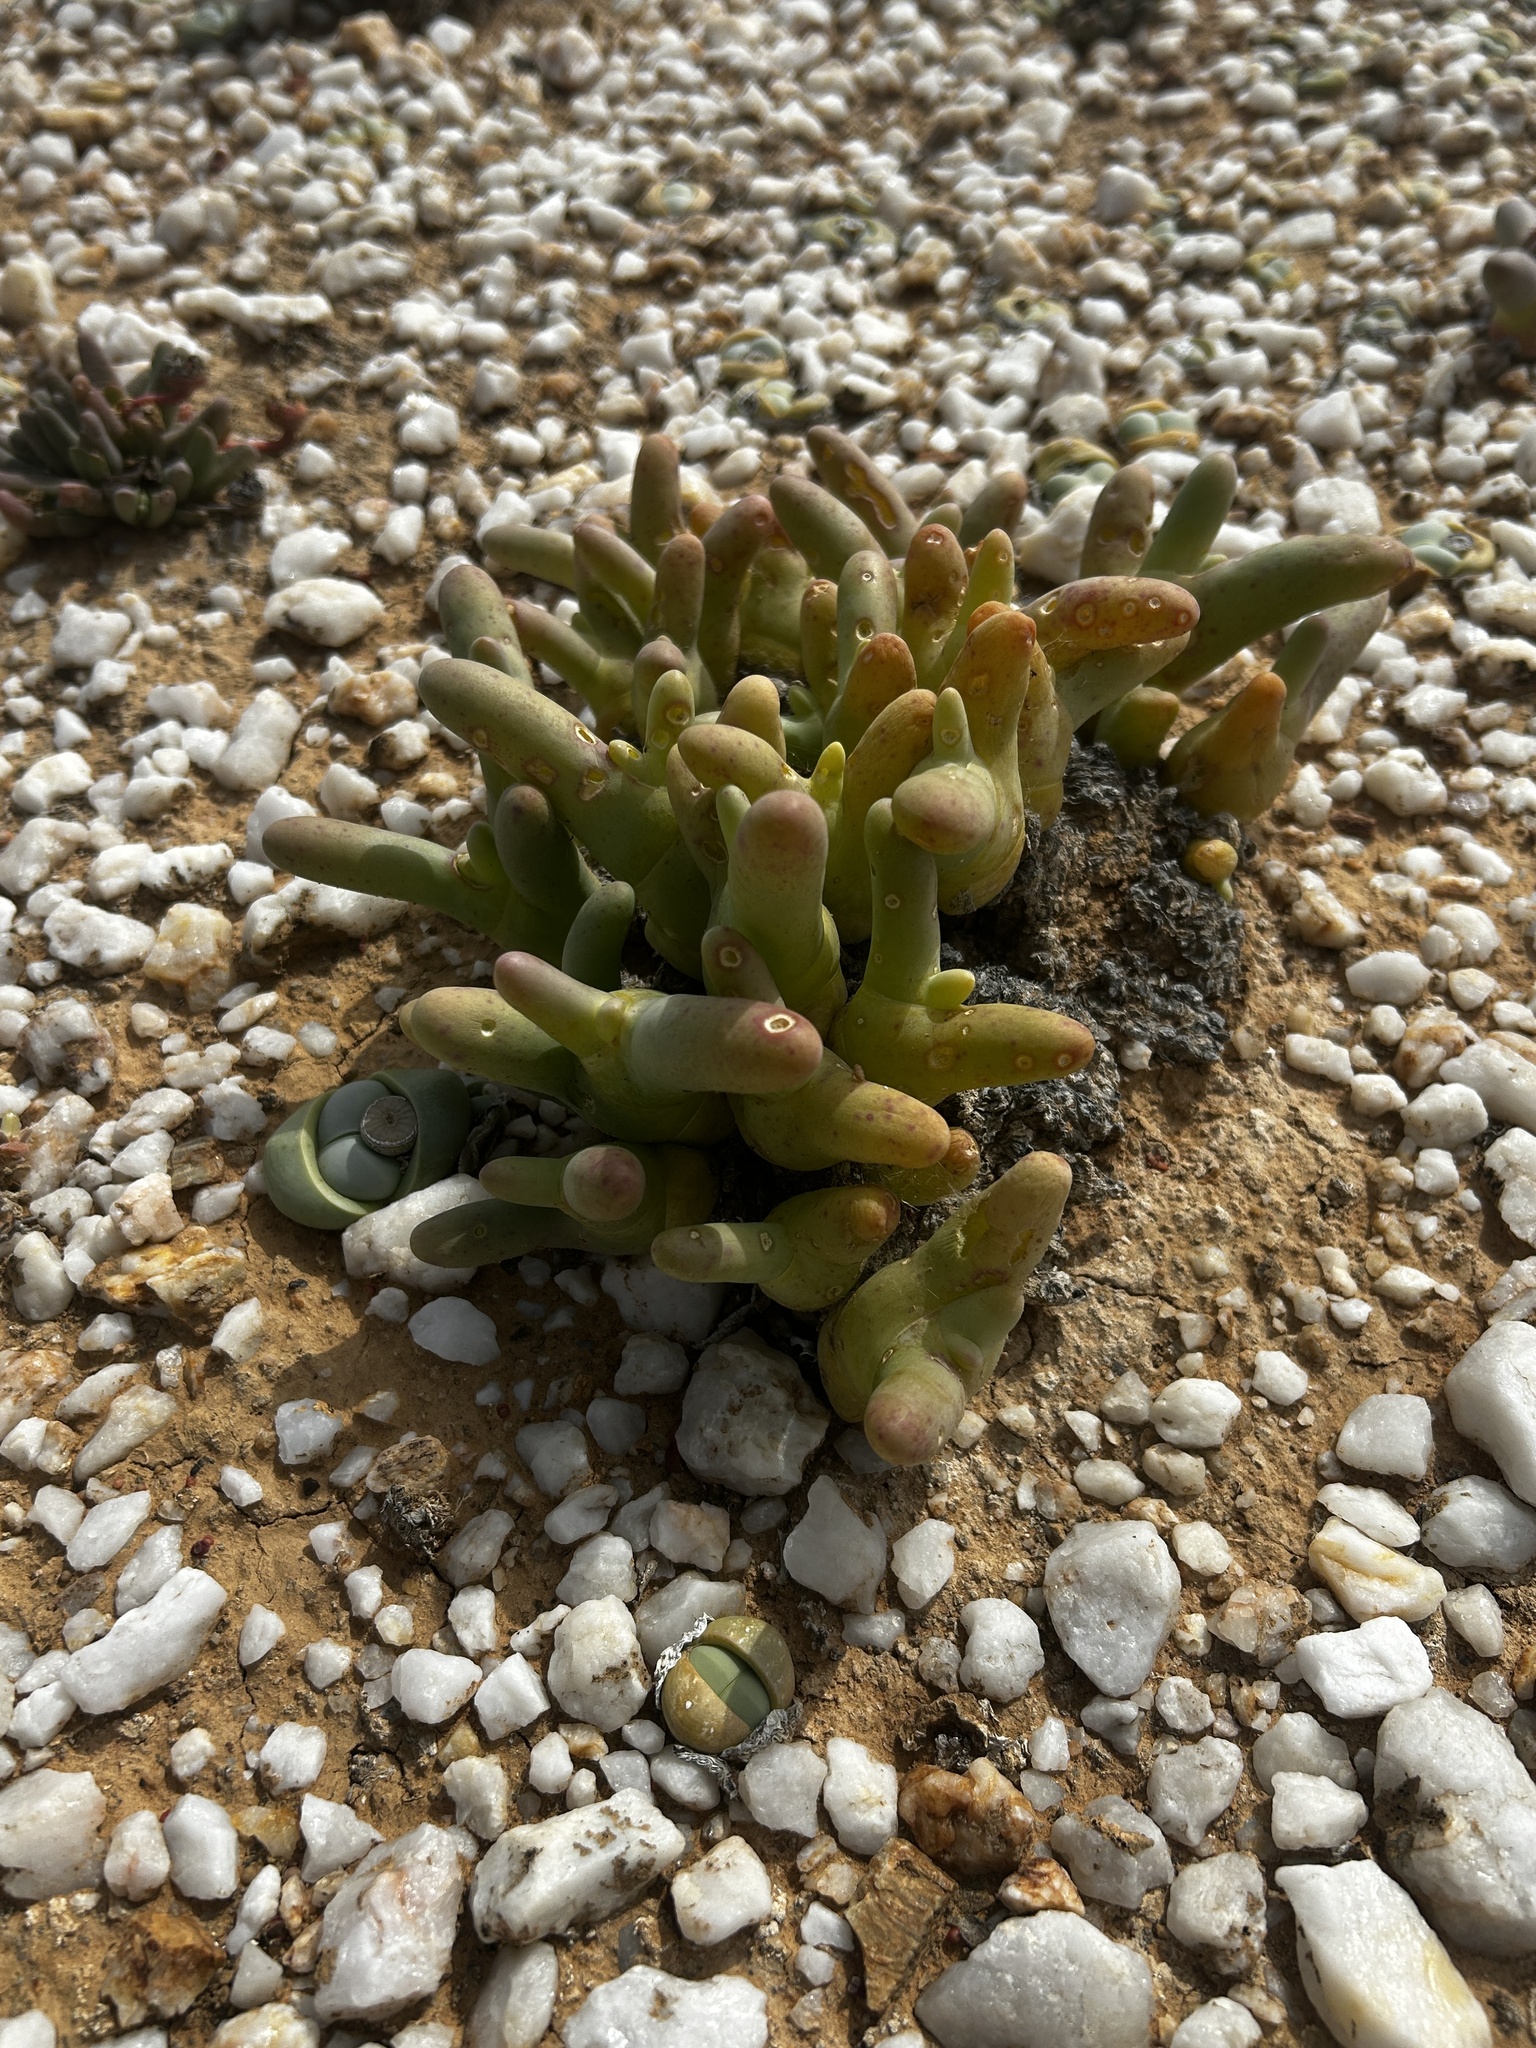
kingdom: Plantae
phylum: Tracheophyta
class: Magnoliopsida
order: Caryophyllales
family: Aizoaceae
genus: Mesembryanthemum
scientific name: Mesembryanthemum digitatum
